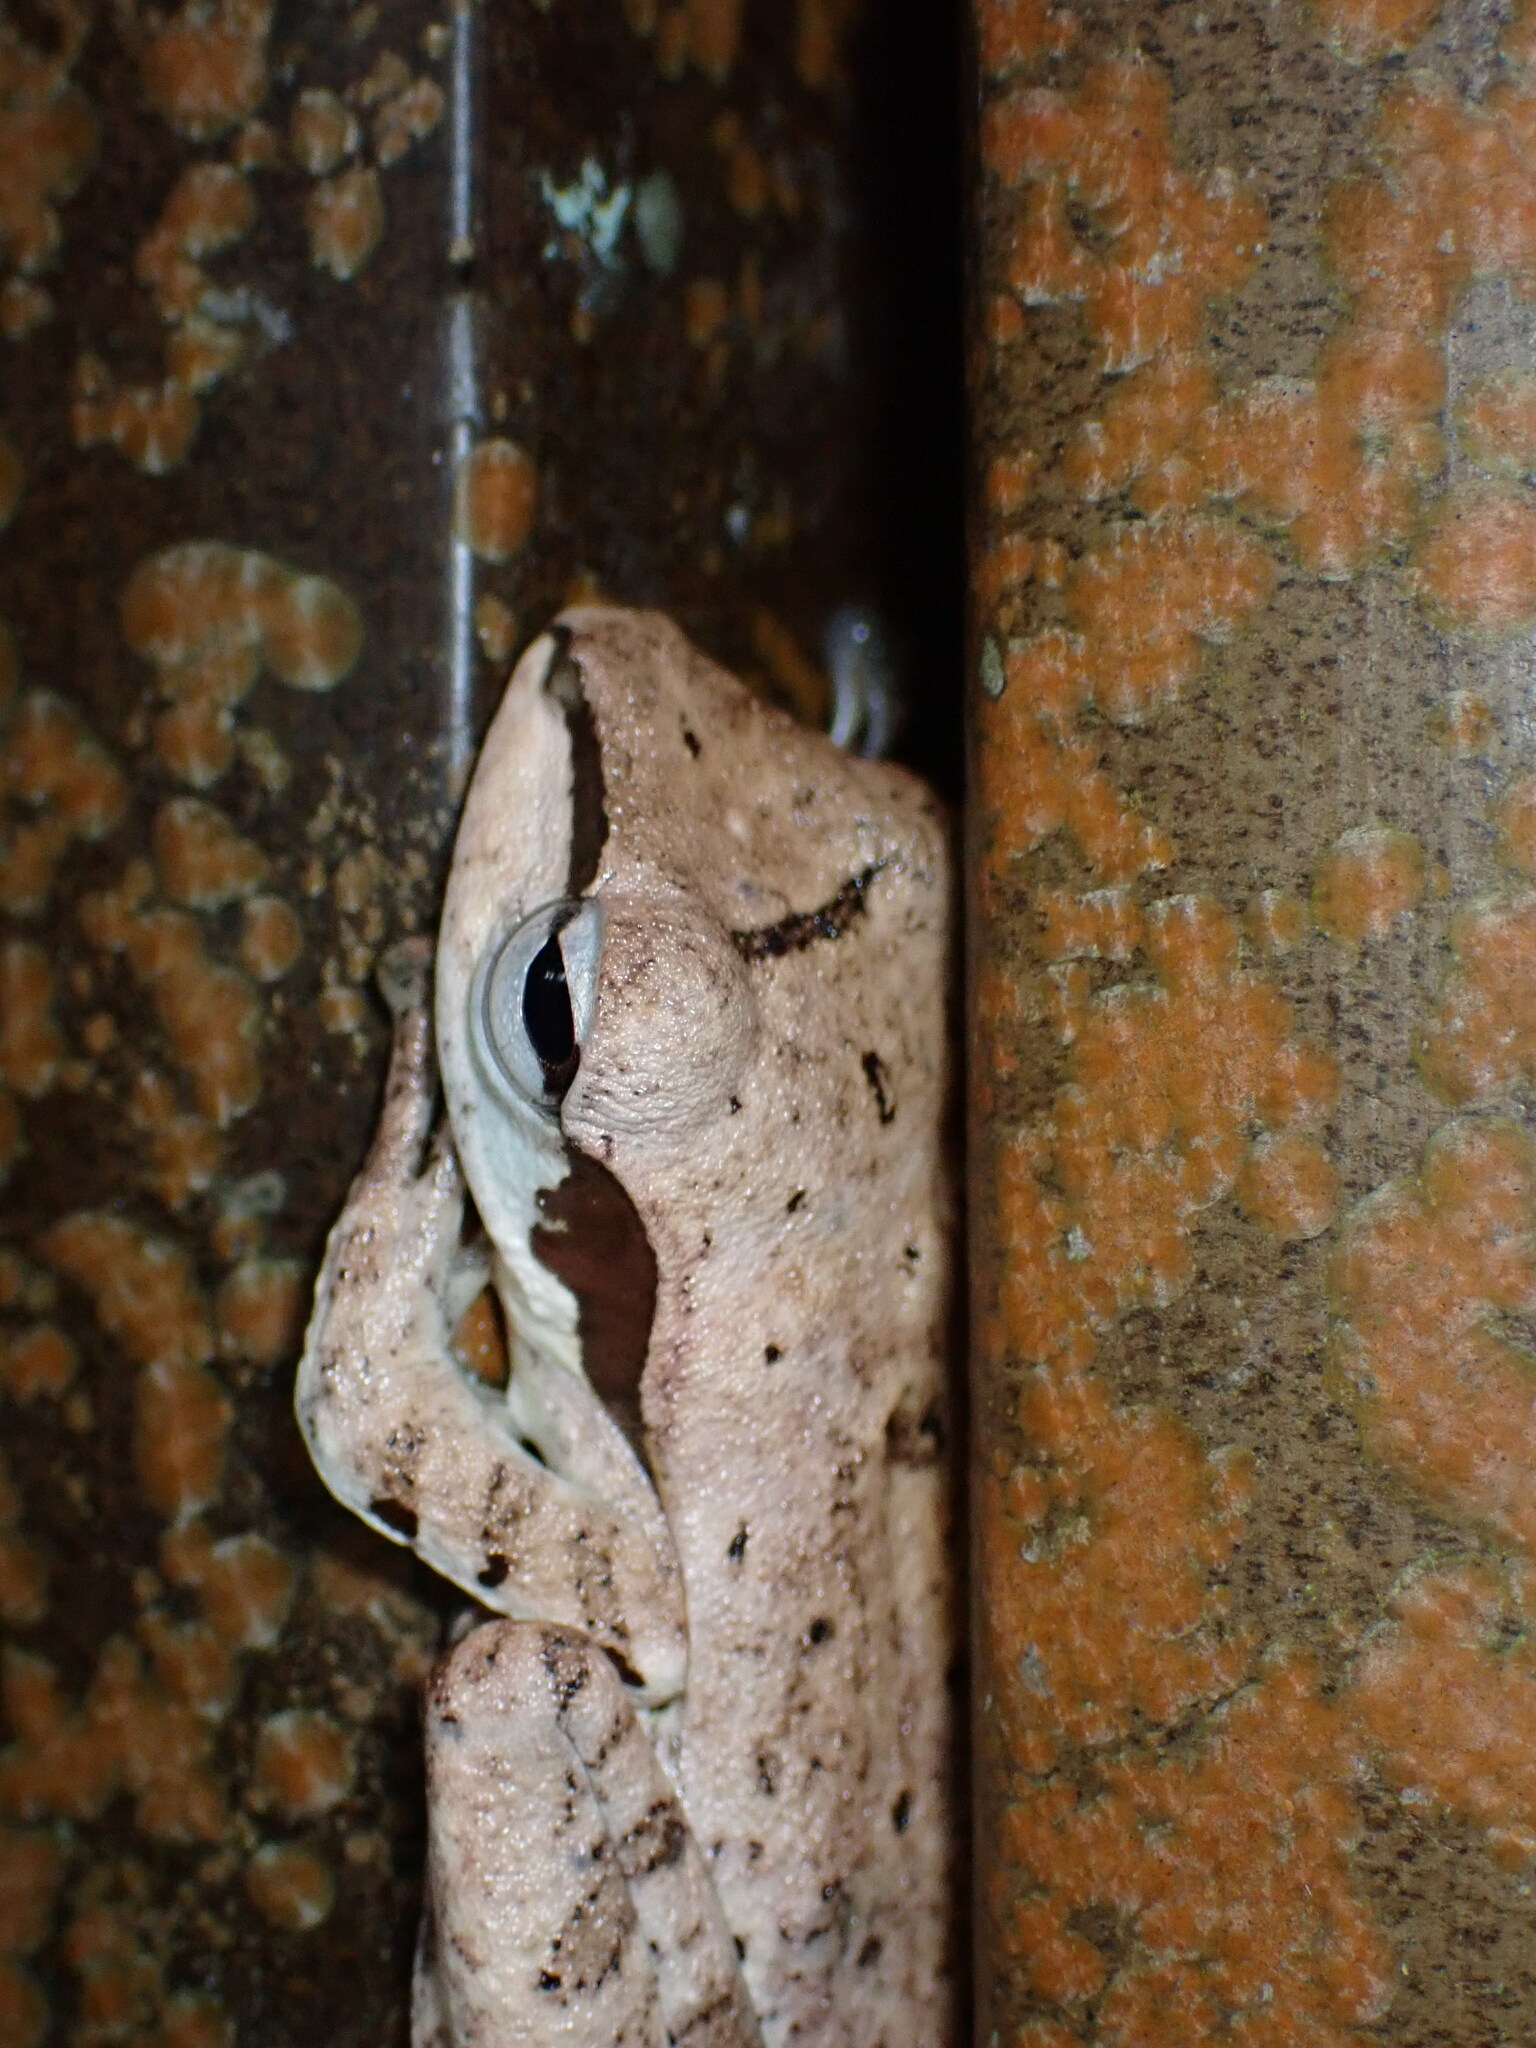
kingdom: Animalia
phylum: Chordata
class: Amphibia
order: Anura
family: Rhacophoridae
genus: Polypedates
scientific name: Polypedates macrotis
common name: Dark-eared tree frog
